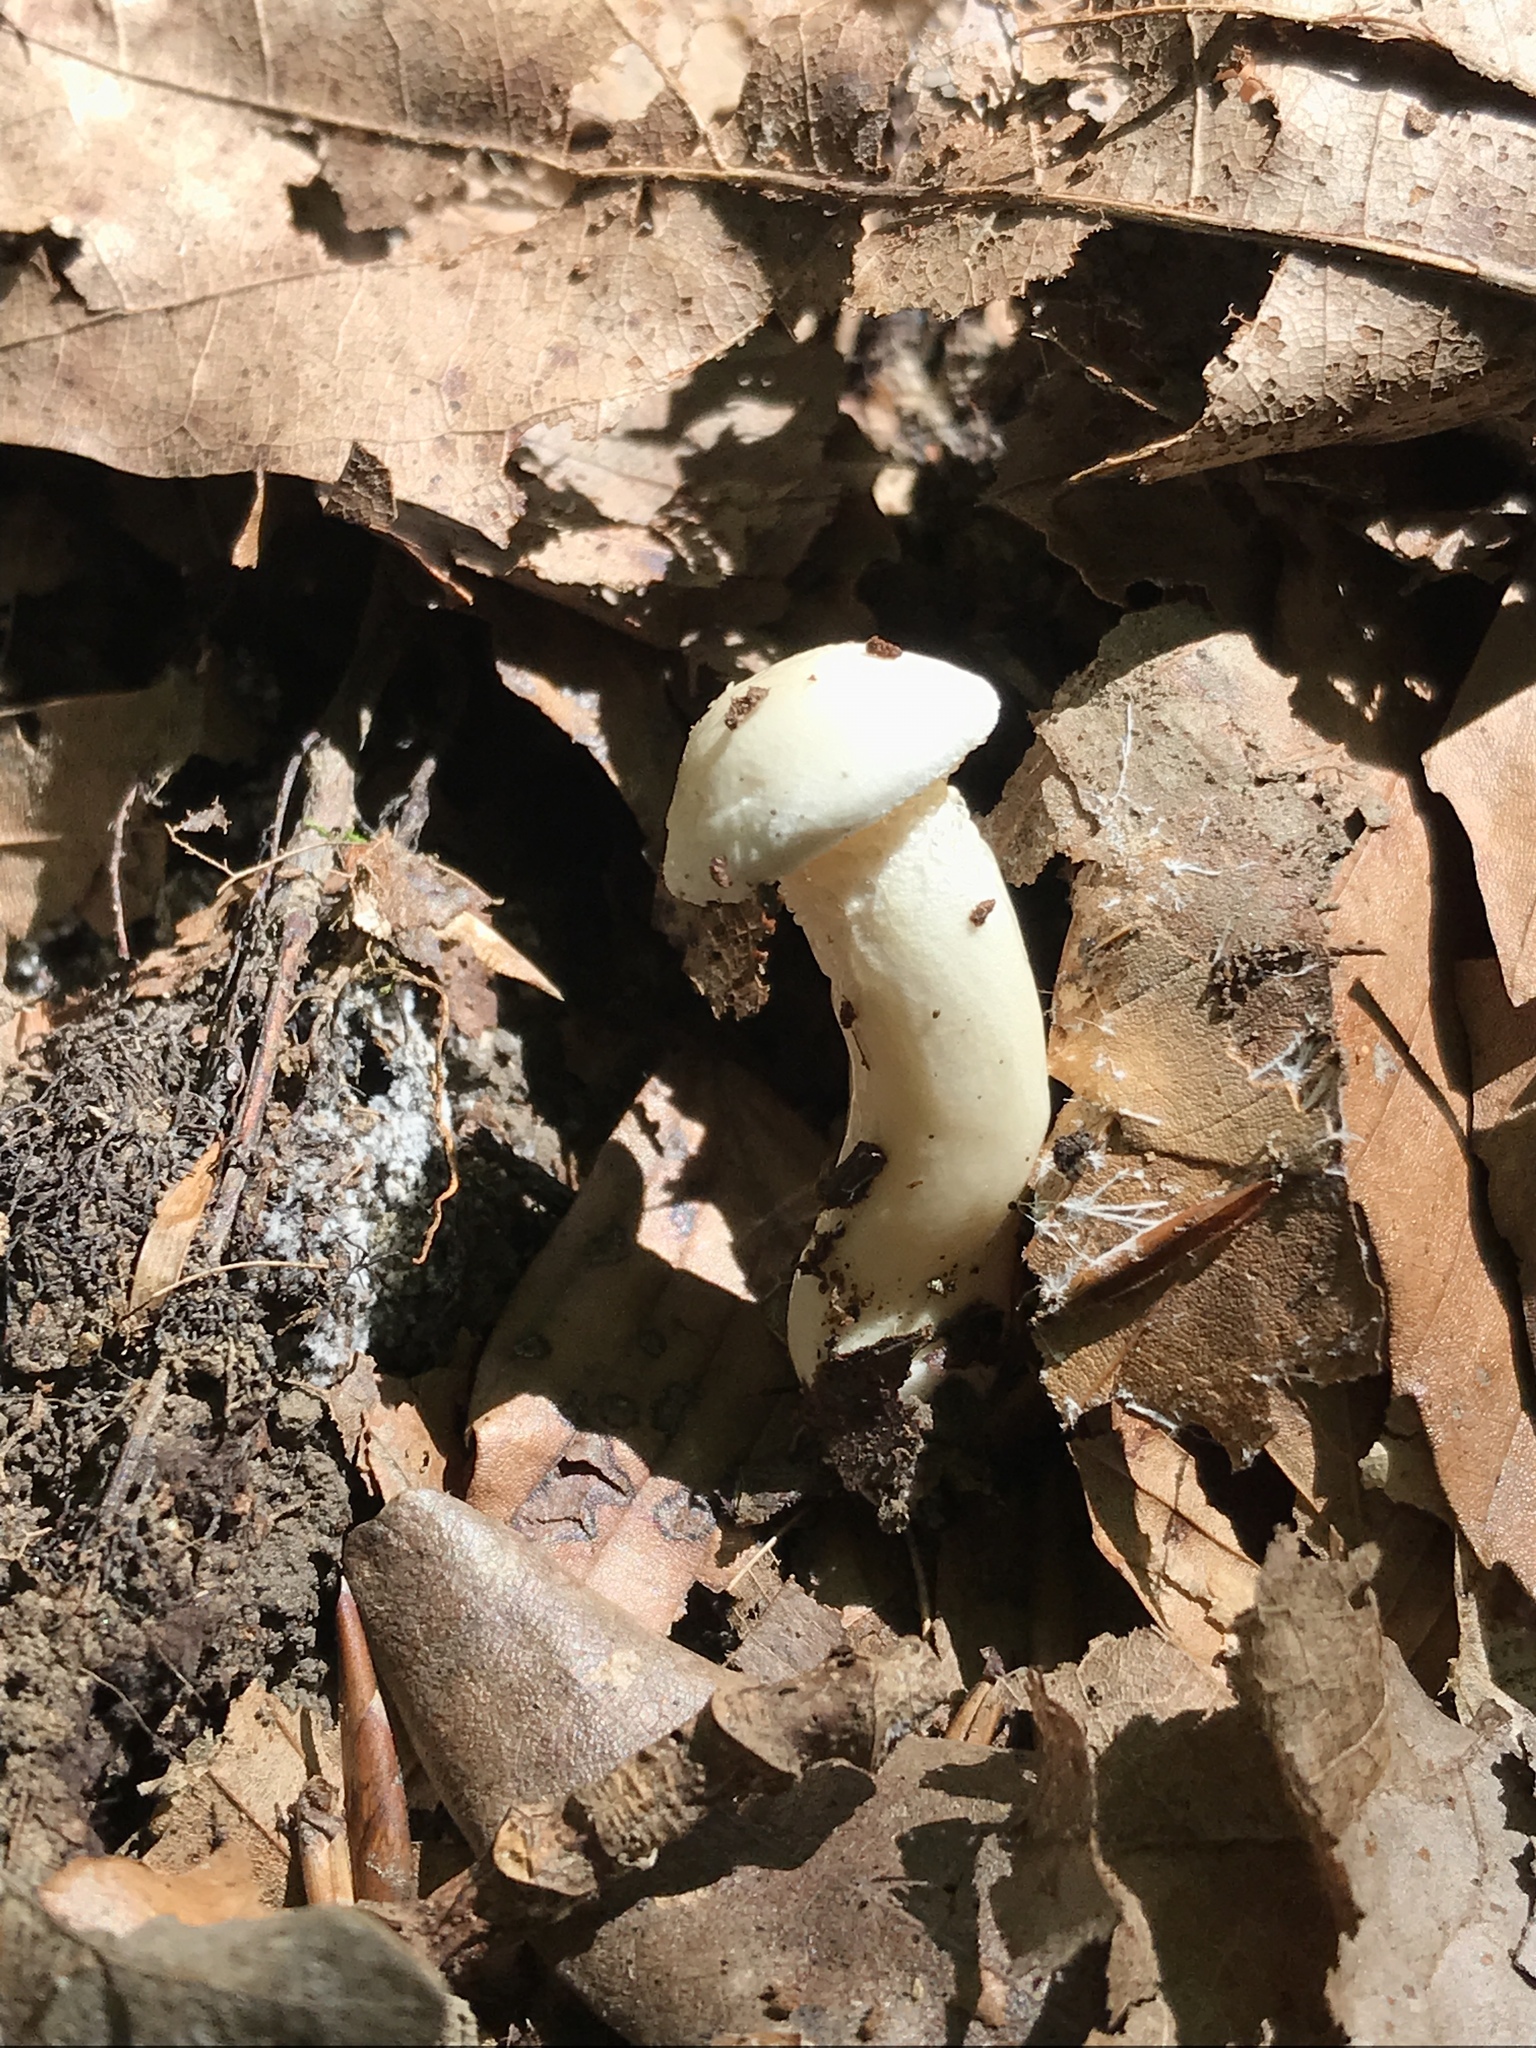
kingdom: Fungi
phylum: Basidiomycota
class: Agaricomycetes
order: Agaricales
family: Hygrophoraceae
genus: Hygrophorus
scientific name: Hygrophorus eburneus
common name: Ivory wax-cap
